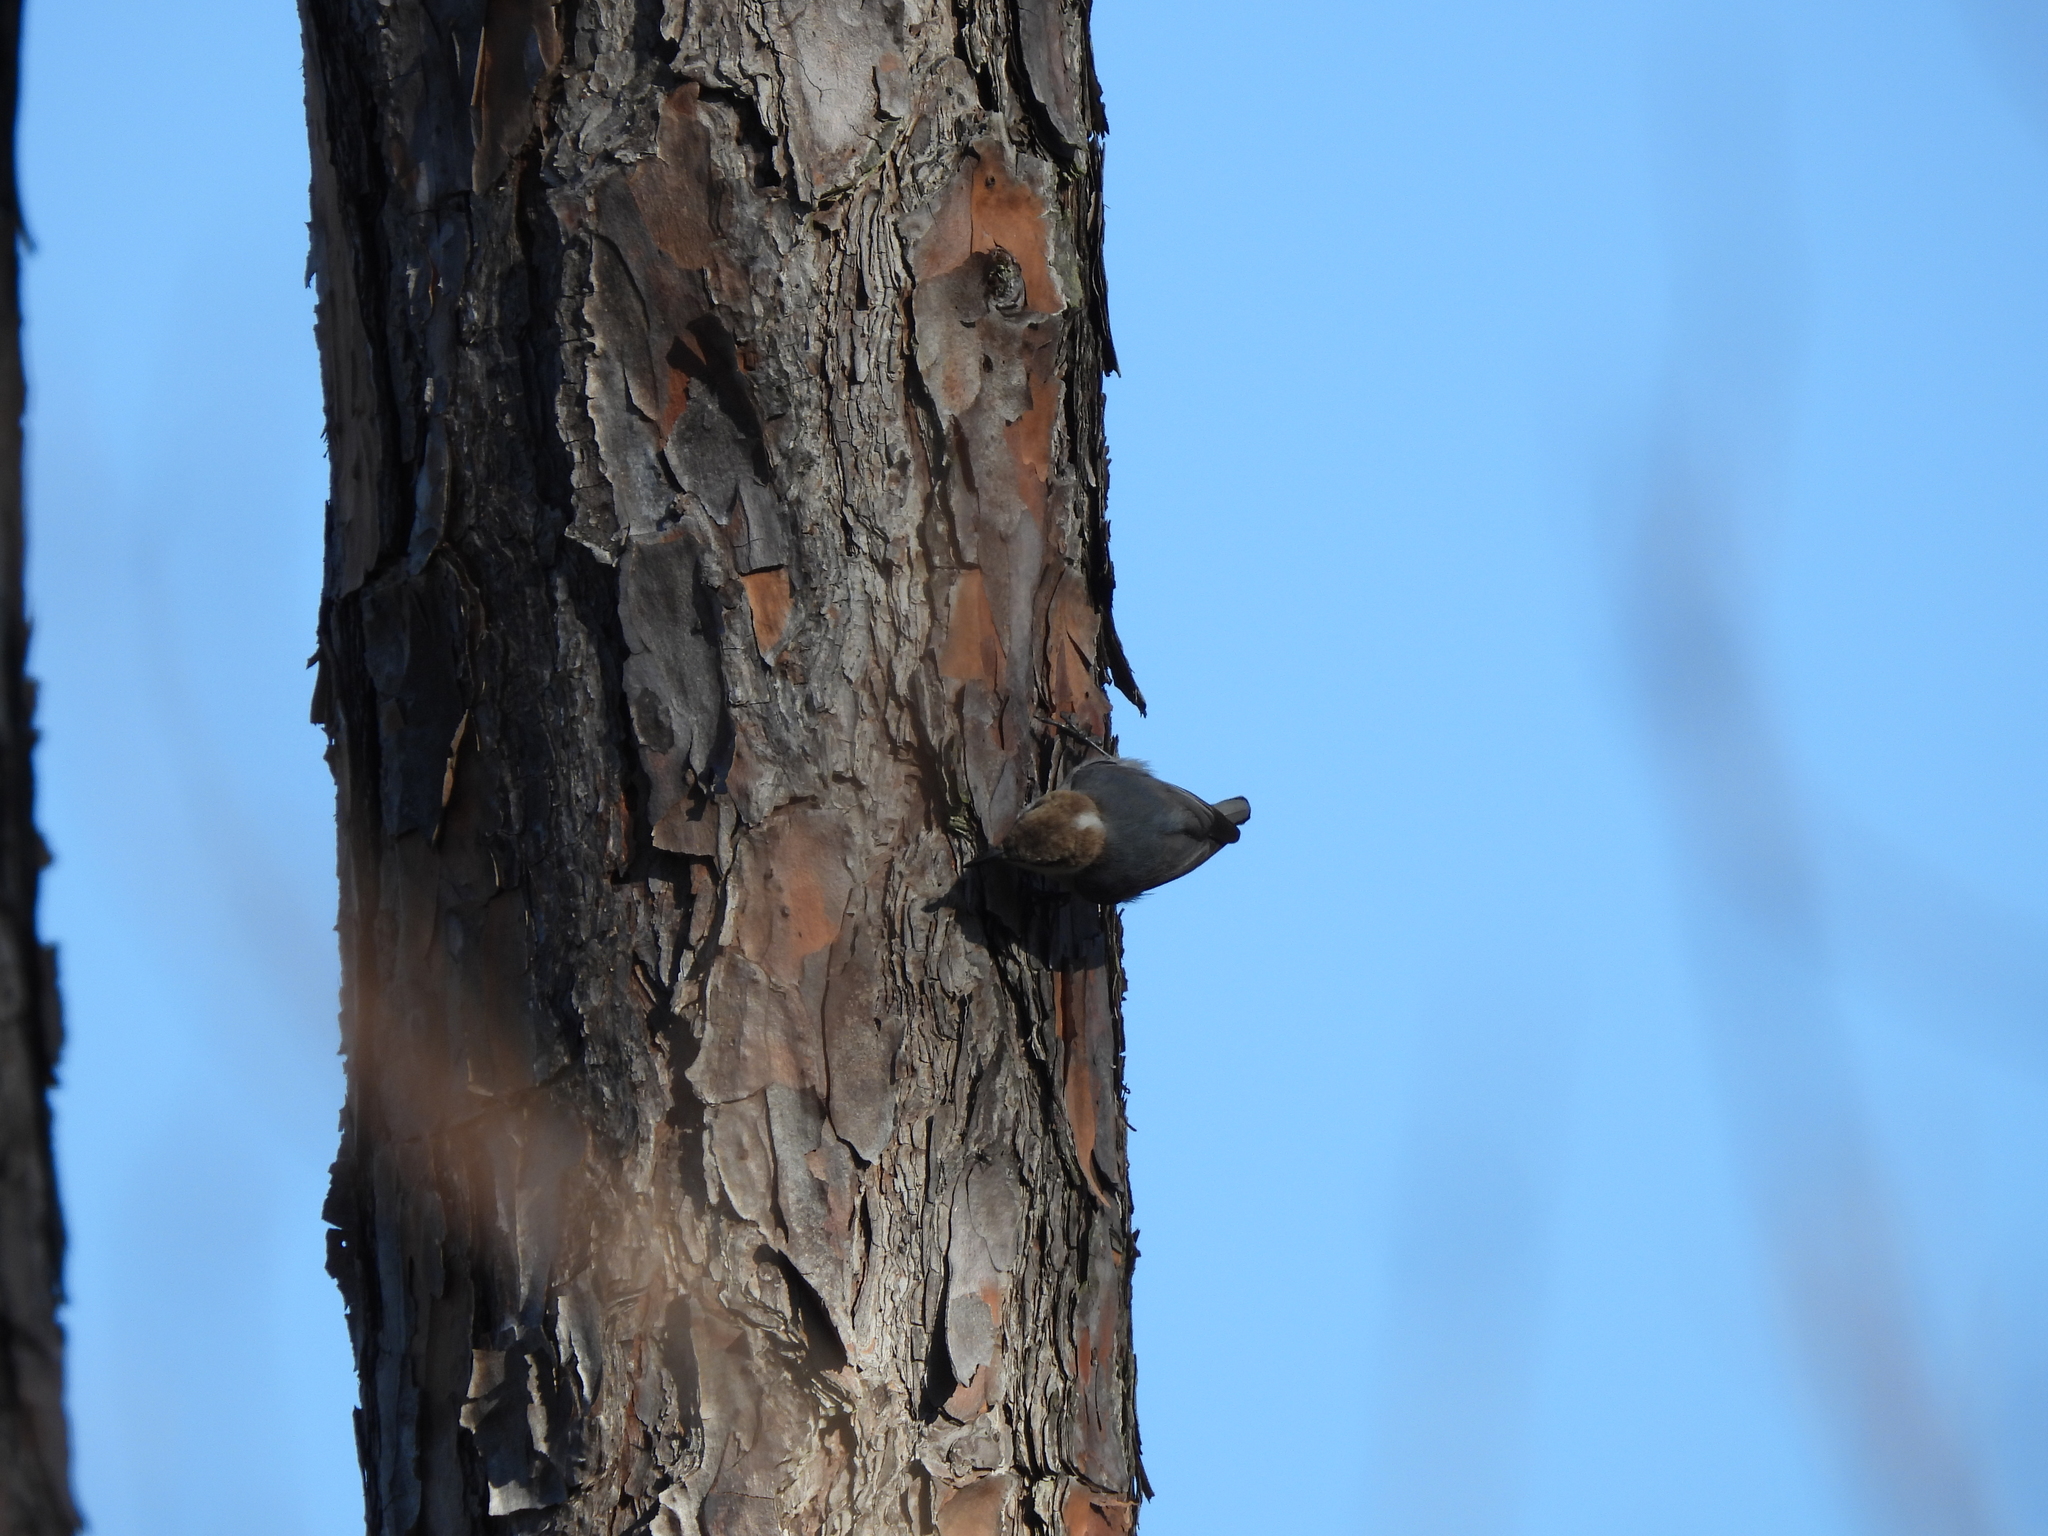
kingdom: Animalia
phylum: Chordata
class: Aves
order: Passeriformes
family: Sittidae
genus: Sitta
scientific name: Sitta pusilla
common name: Brown-headed nuthatch
